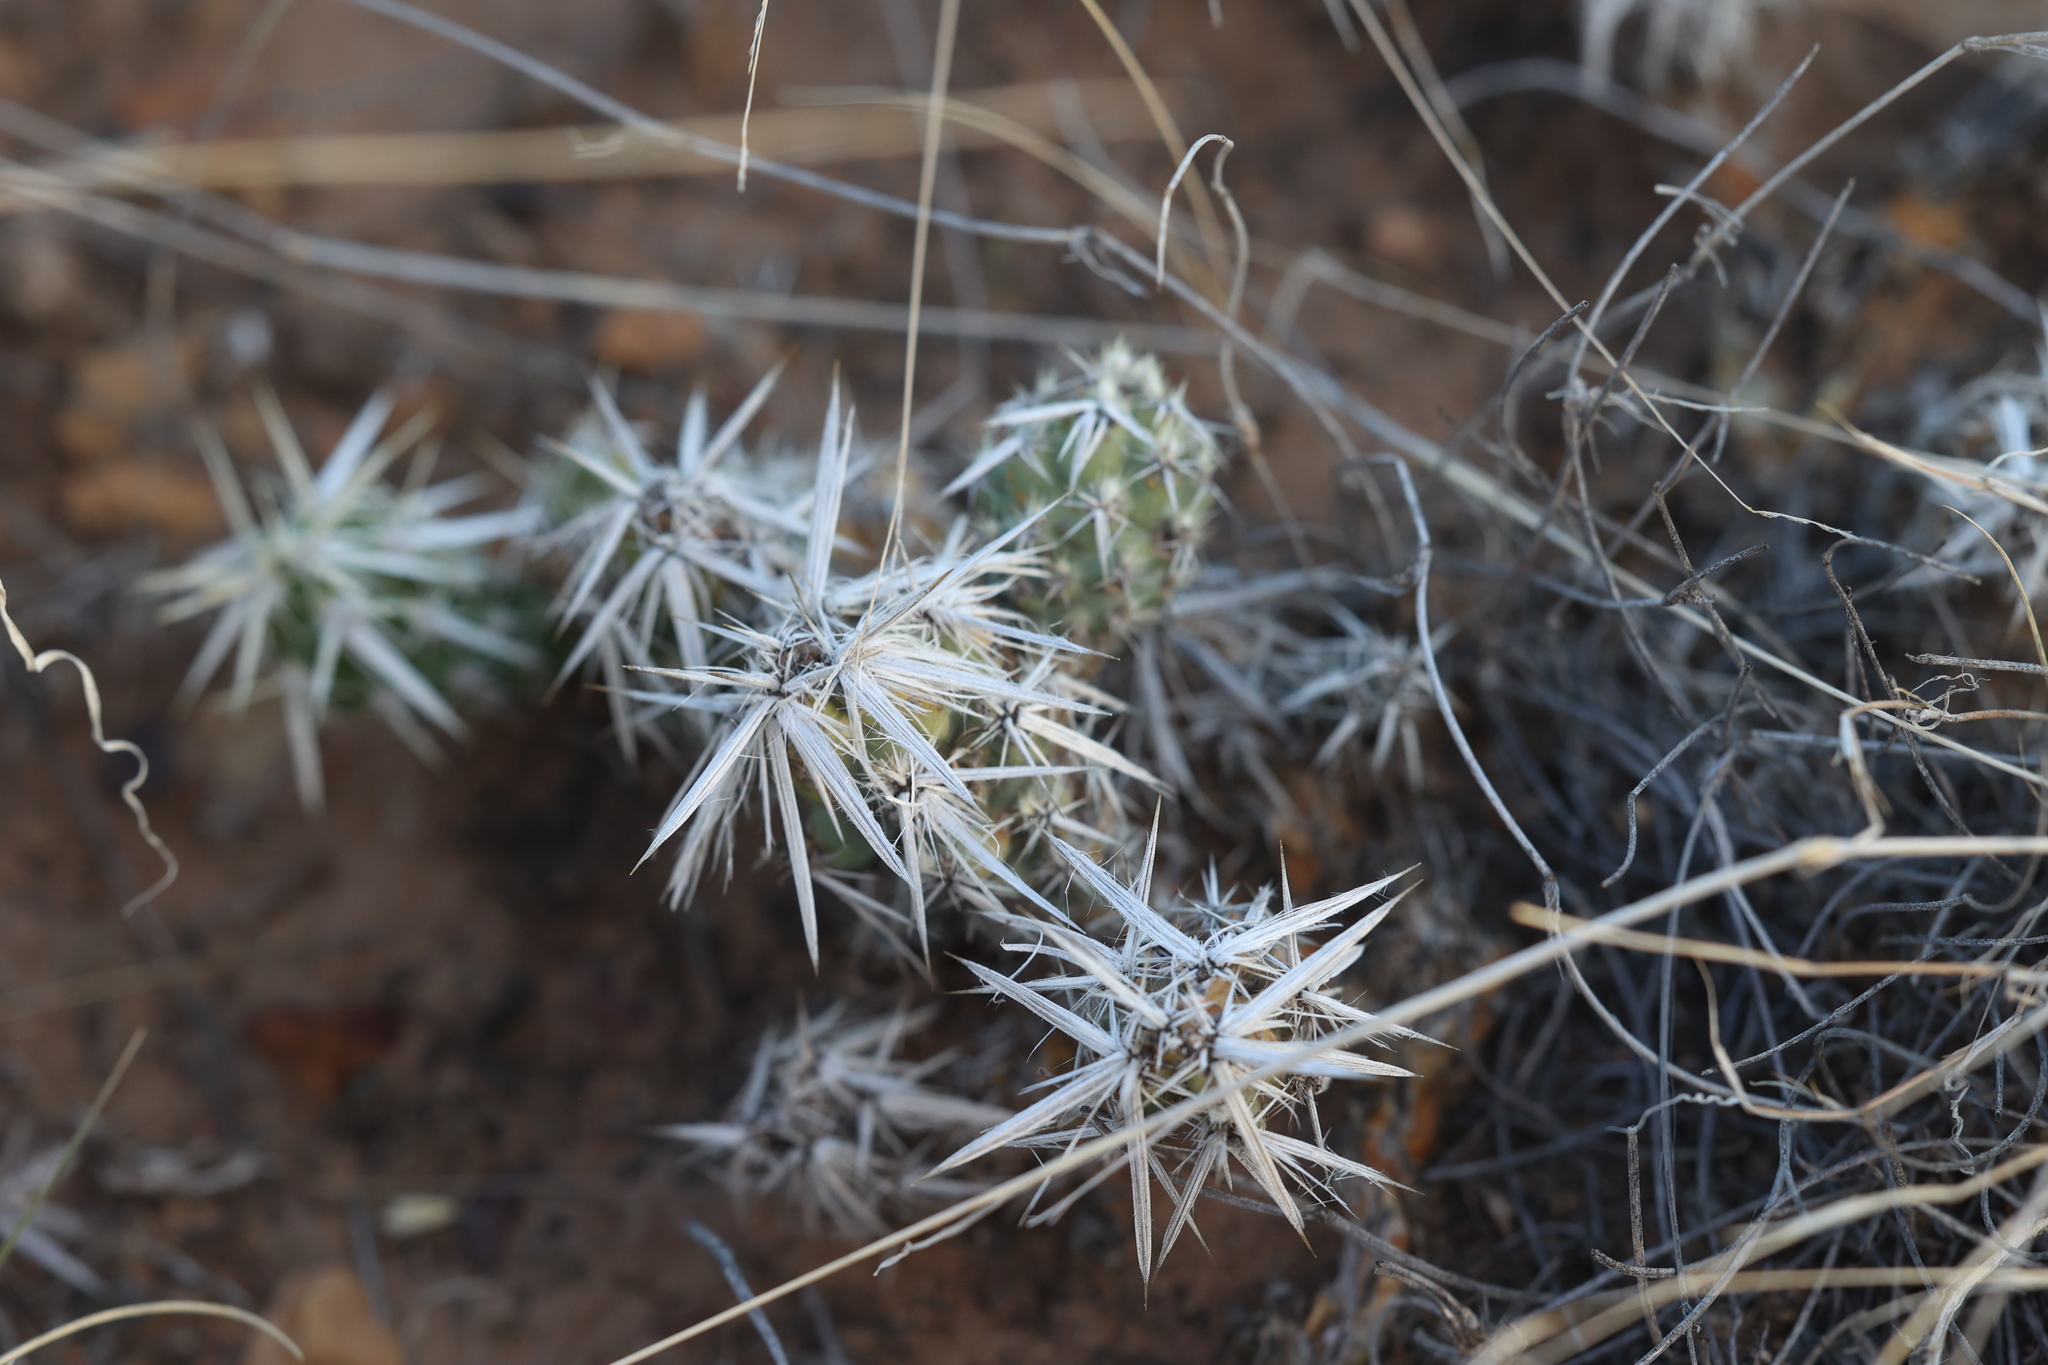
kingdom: Plantae
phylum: Tracheophyta
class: Magnoliopsida
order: Caryophyllales
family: Cactaceae
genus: Grusonia
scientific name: Grusonia clavata
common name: Club cholla
